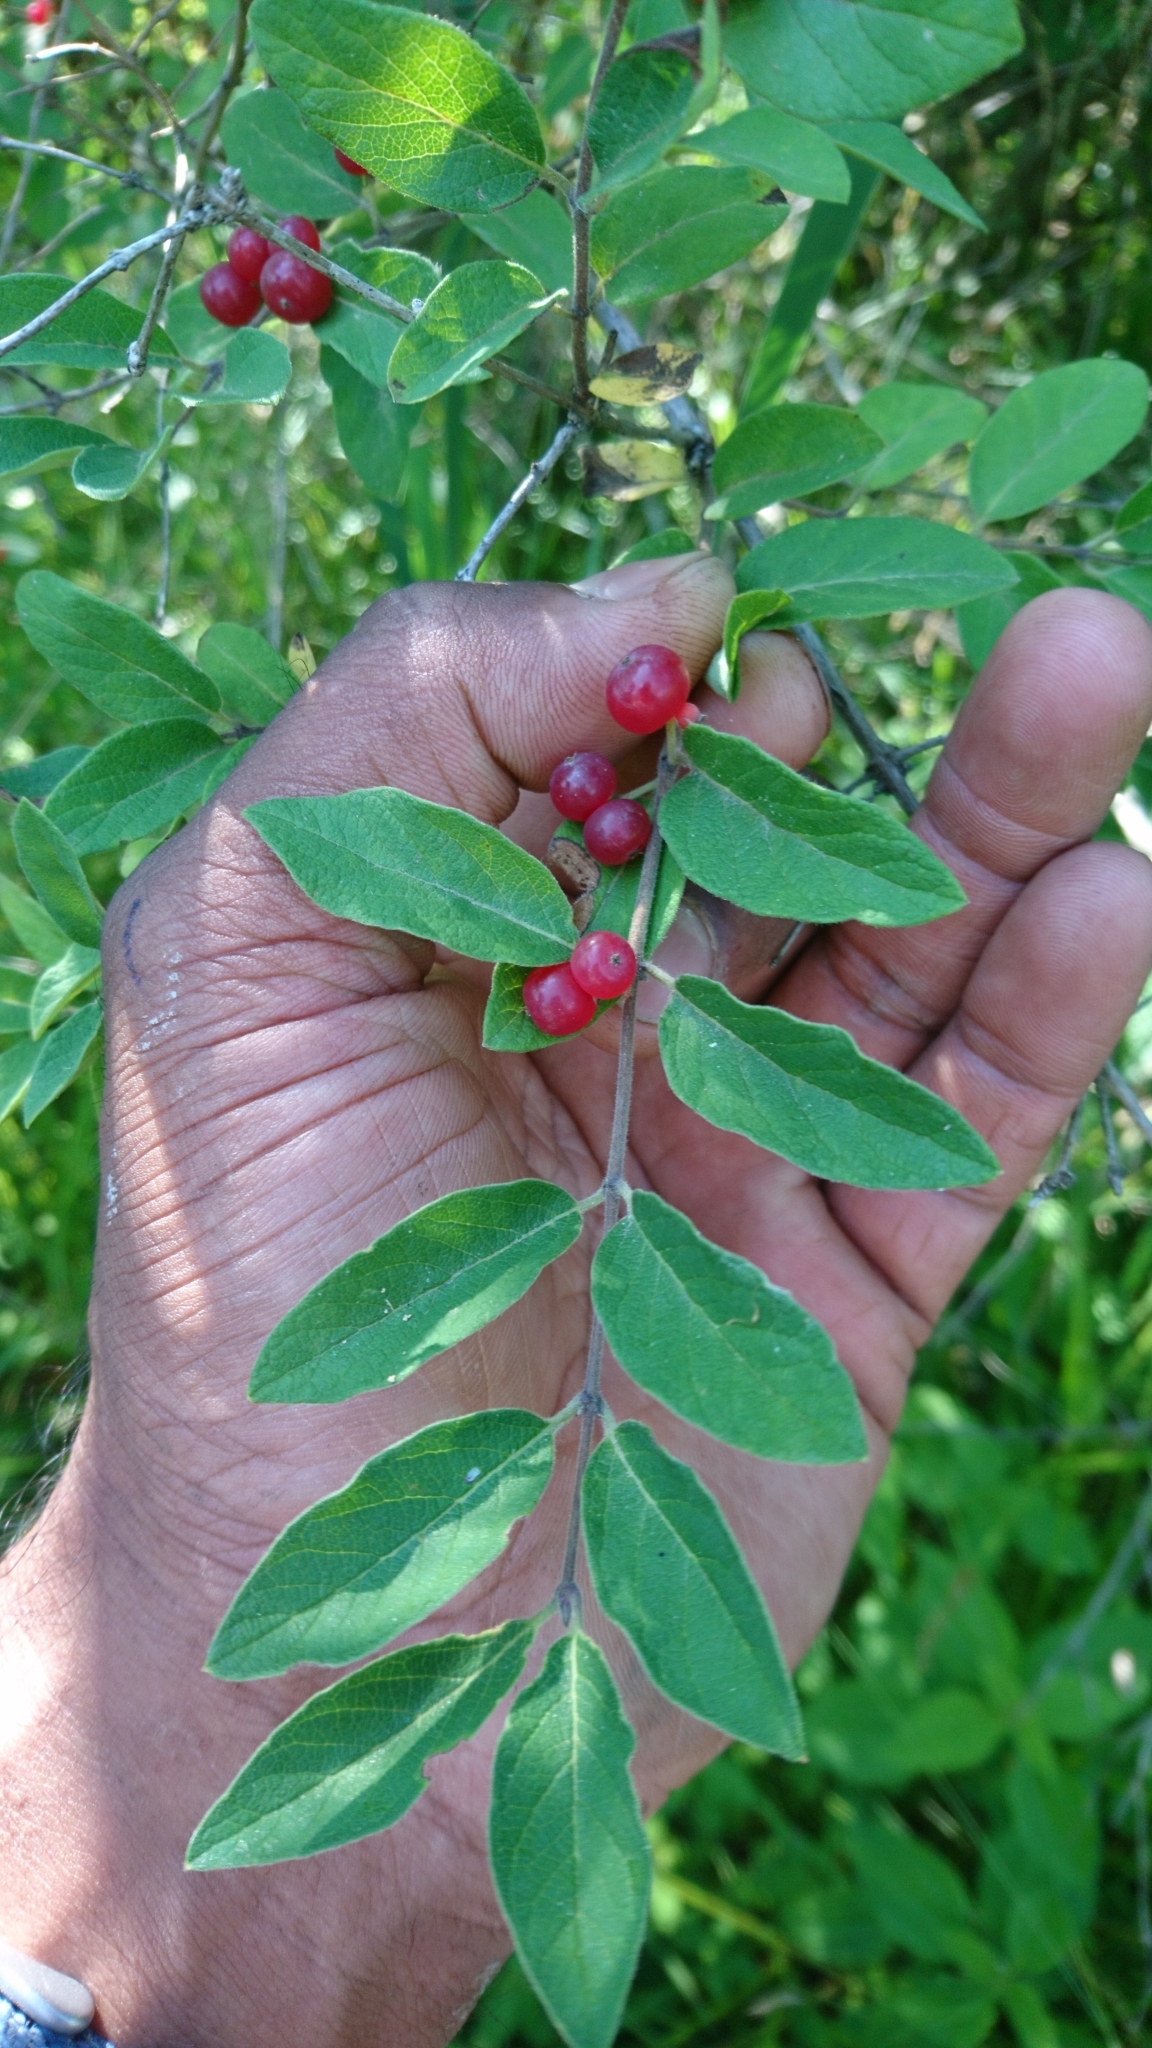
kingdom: Plantae
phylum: Tracheophyta
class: Magnoliopsida
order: Dipsacales
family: Caprifoliaceae
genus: Lonicera
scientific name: Lonicera morrowii
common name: Morrow's honeysuckle
